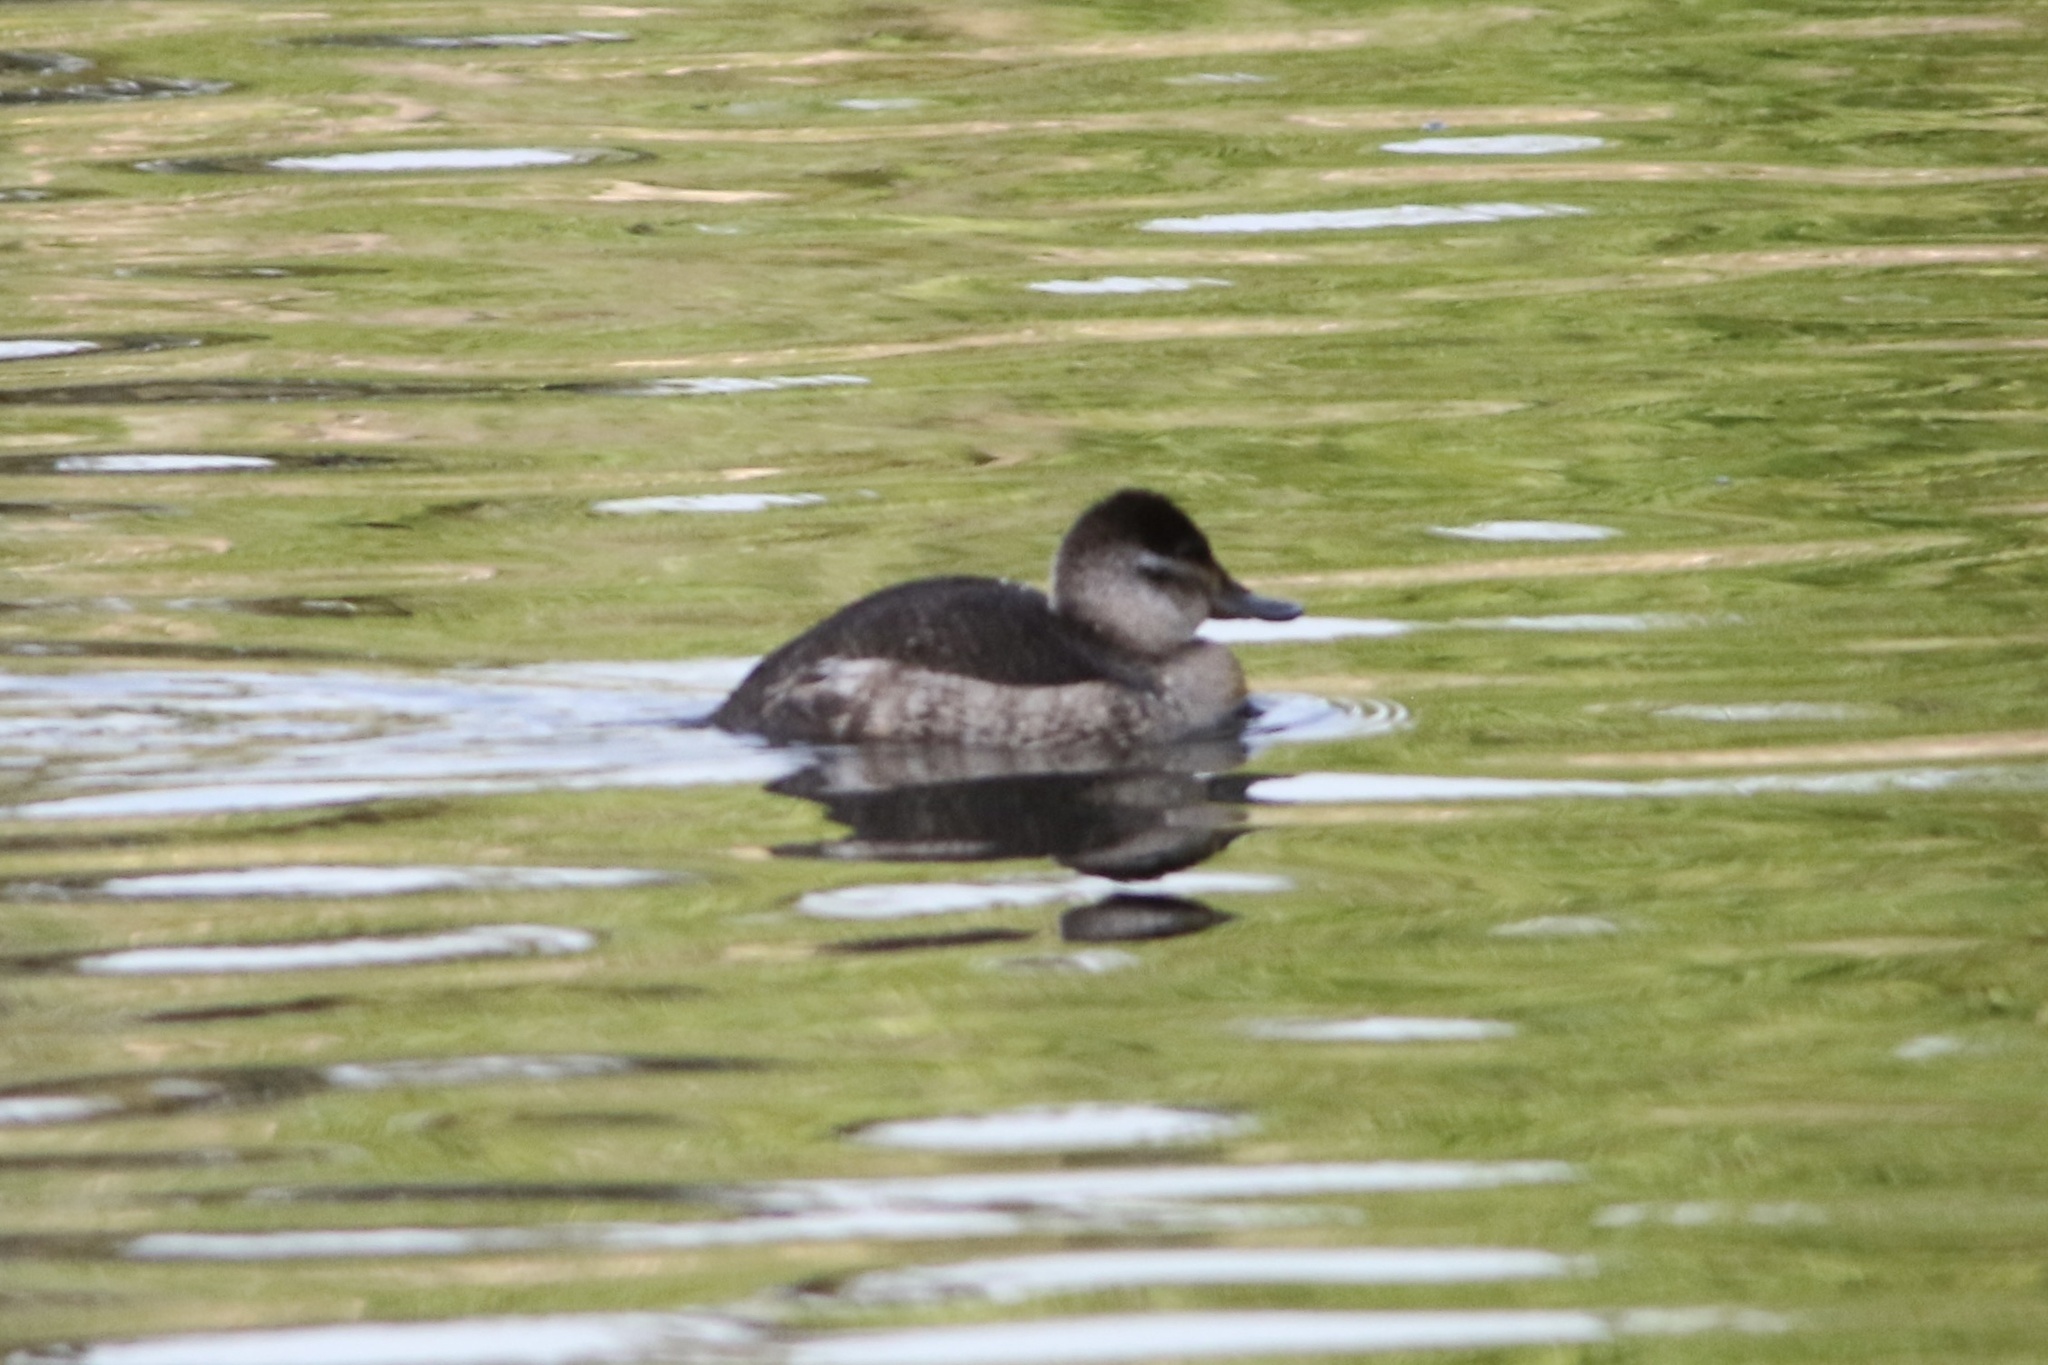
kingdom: Animalia
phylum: Chordata
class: Aves
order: Anseriformes
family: Anatidae
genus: Oxyura
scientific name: Oxyura jamaicensis
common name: Ruddy duck
